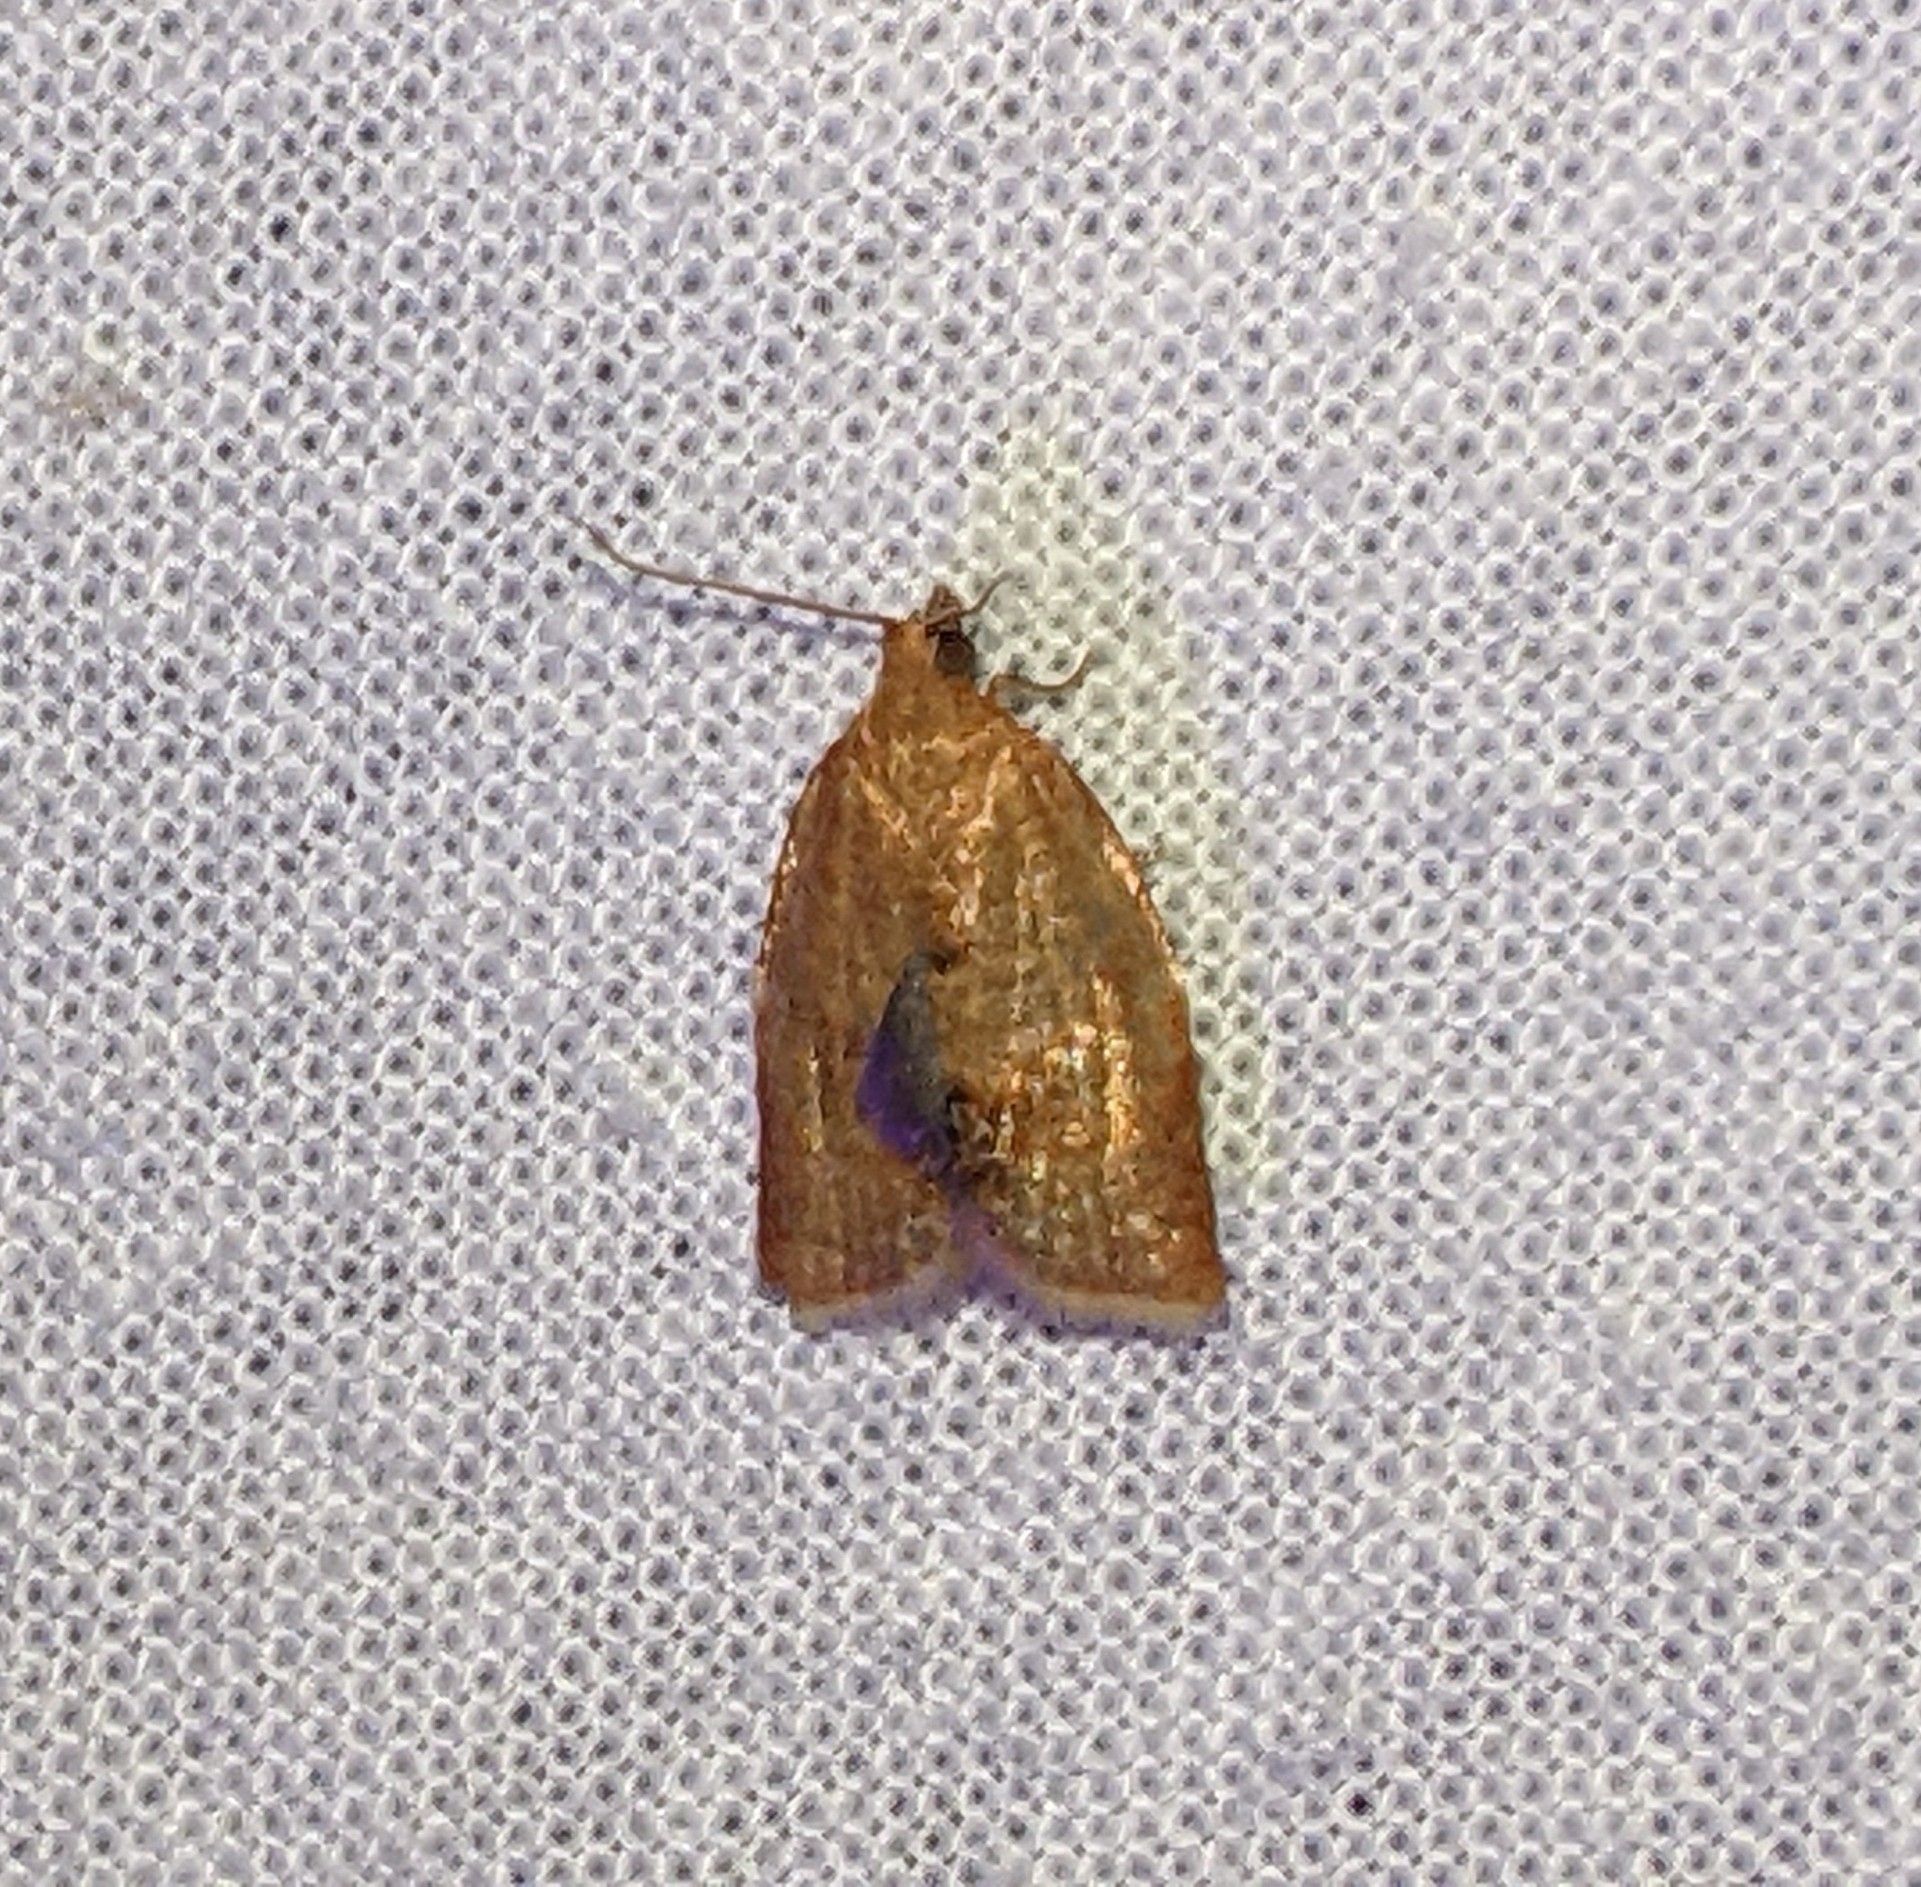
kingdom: Animalia
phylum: Arthropoda
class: Insecta
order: Lepidoptera
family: Tortricidae
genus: Clepsis
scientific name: Clepsis consimilana
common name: Privet tortrix
